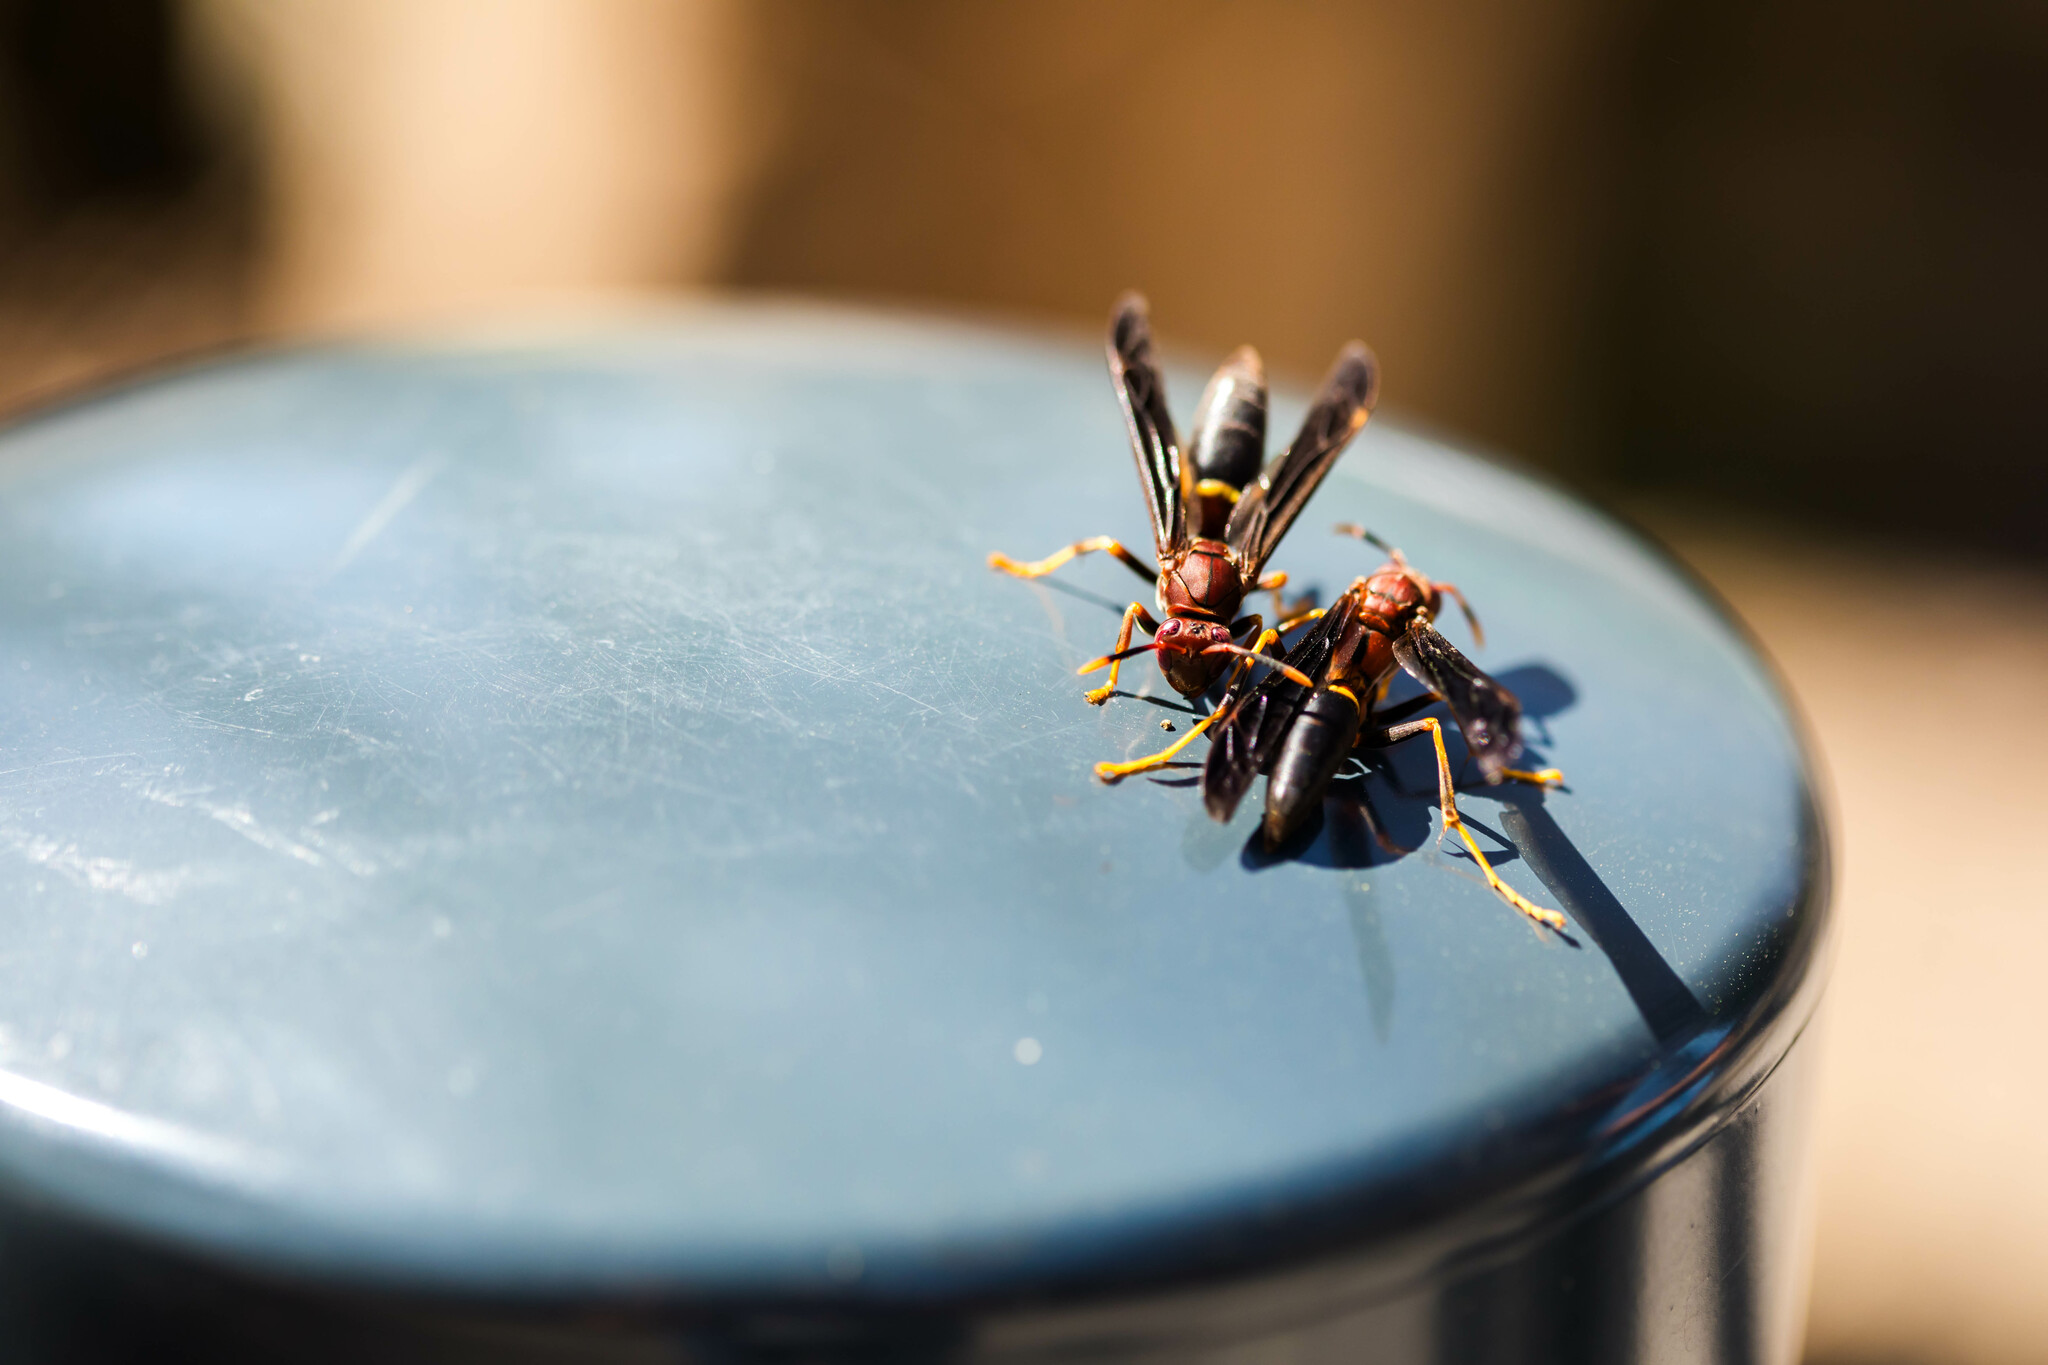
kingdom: Animalia
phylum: Arthropoda
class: Insecta
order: Hymenoptera
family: Eumenidae
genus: Polistes
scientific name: Polistes annularis
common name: Ringed paper wasp
